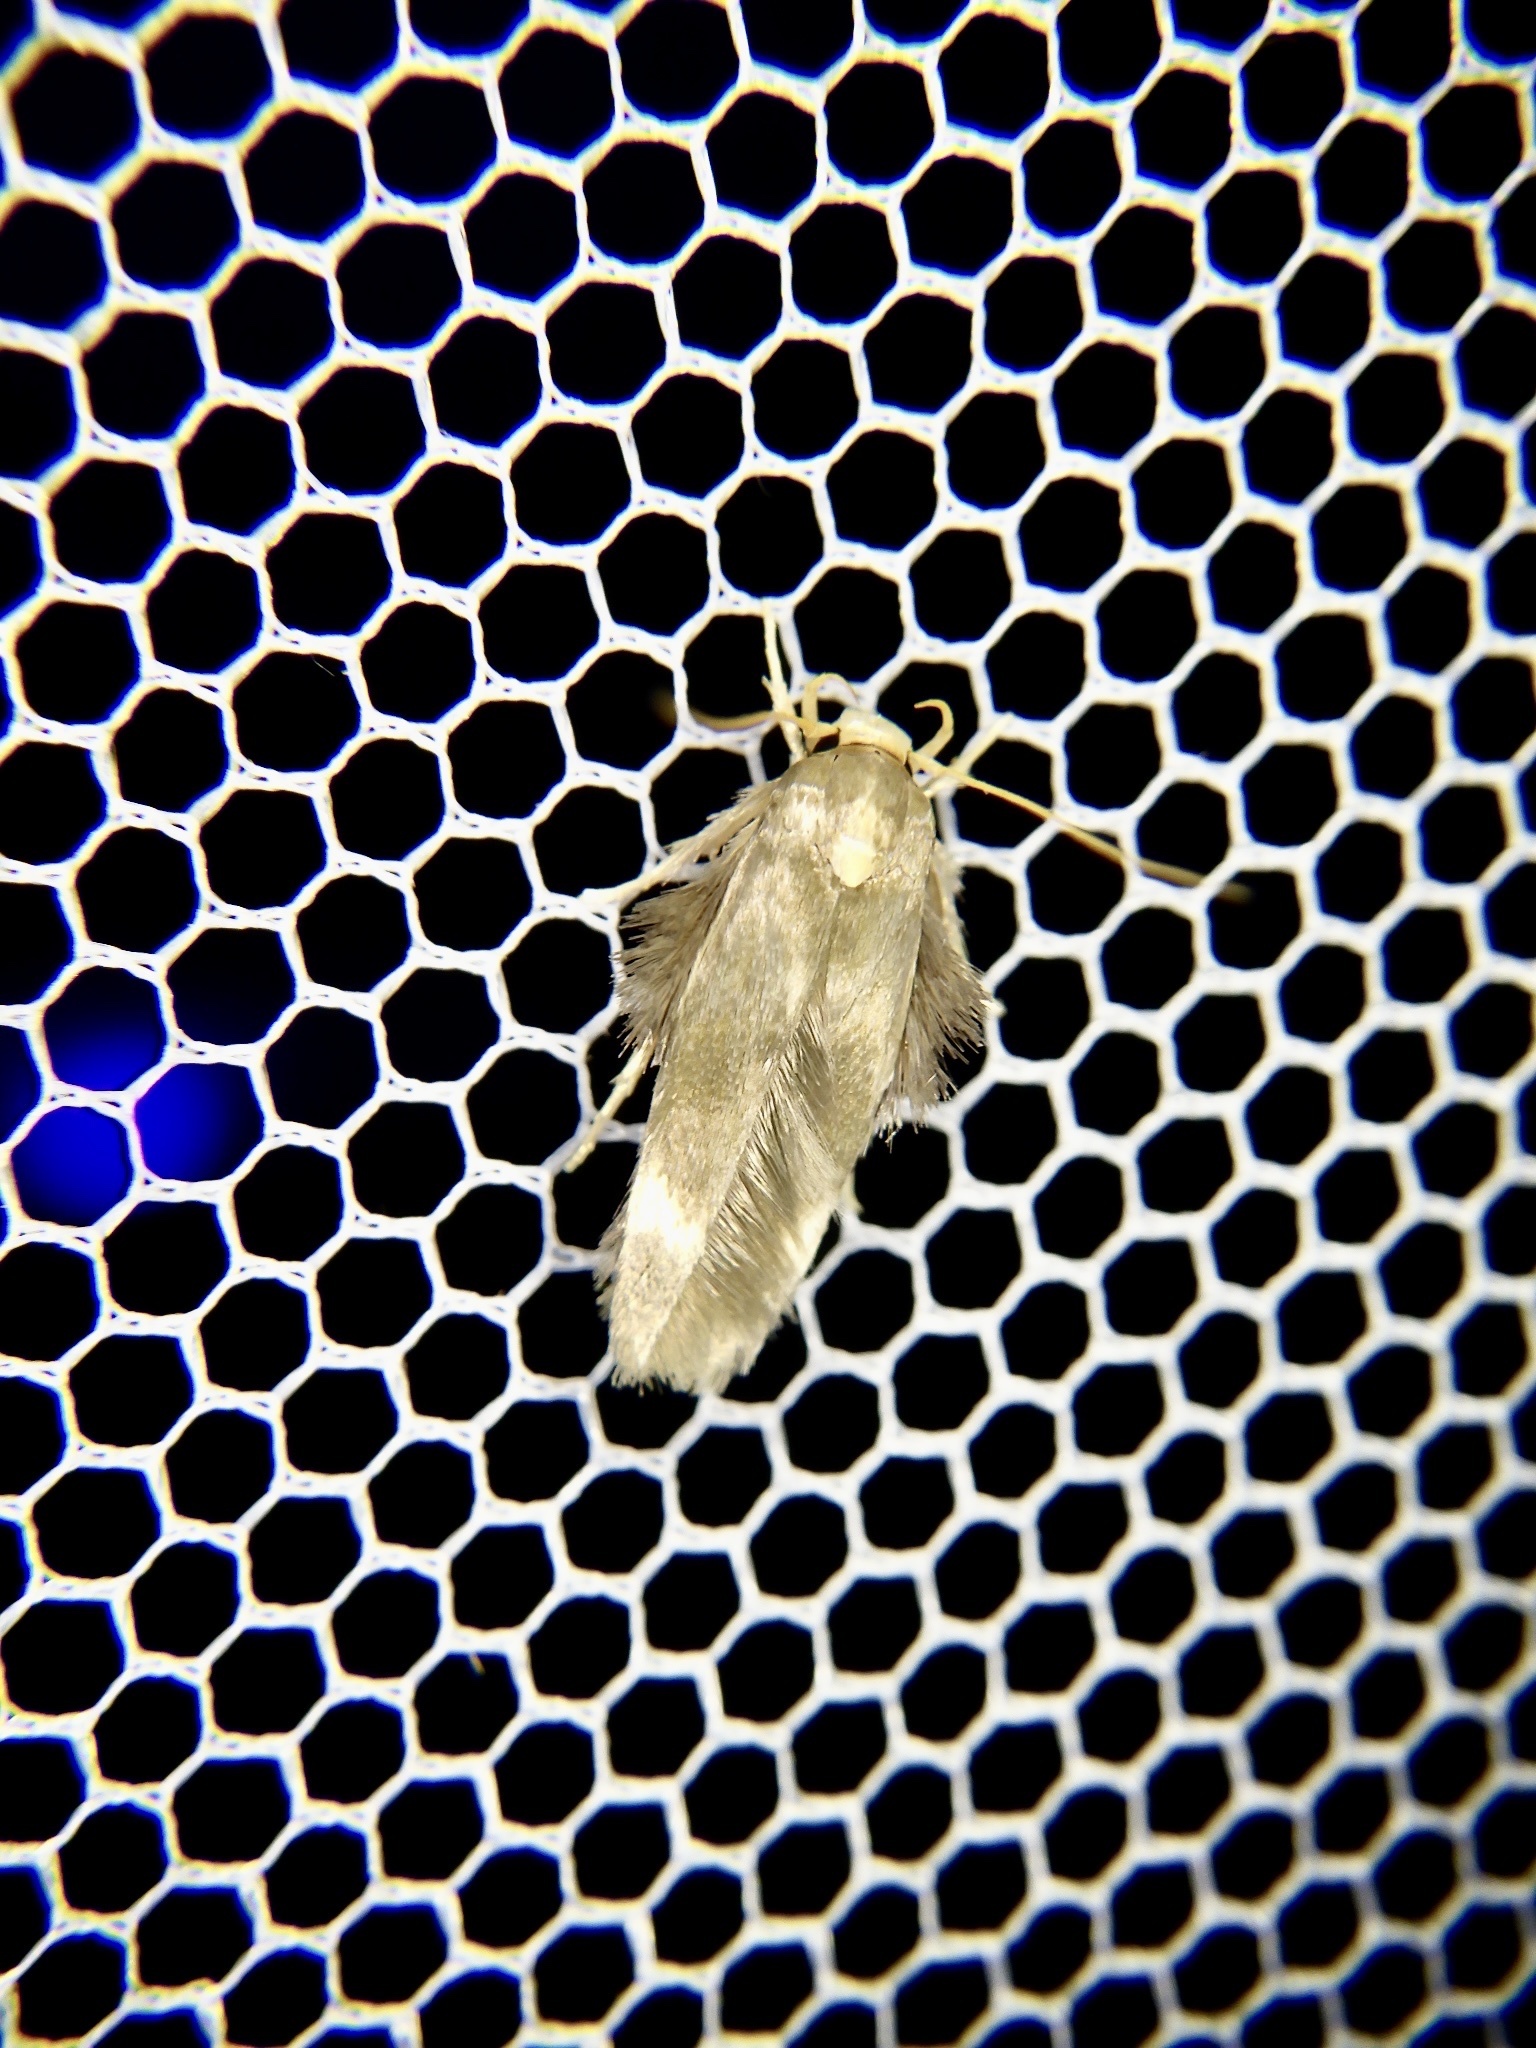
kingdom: Animalia
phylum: Arthropoda
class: Insecta
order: Lepidoptera
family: Stathmopodidae
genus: Stathmopoda
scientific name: Stathmopoda masinissa
